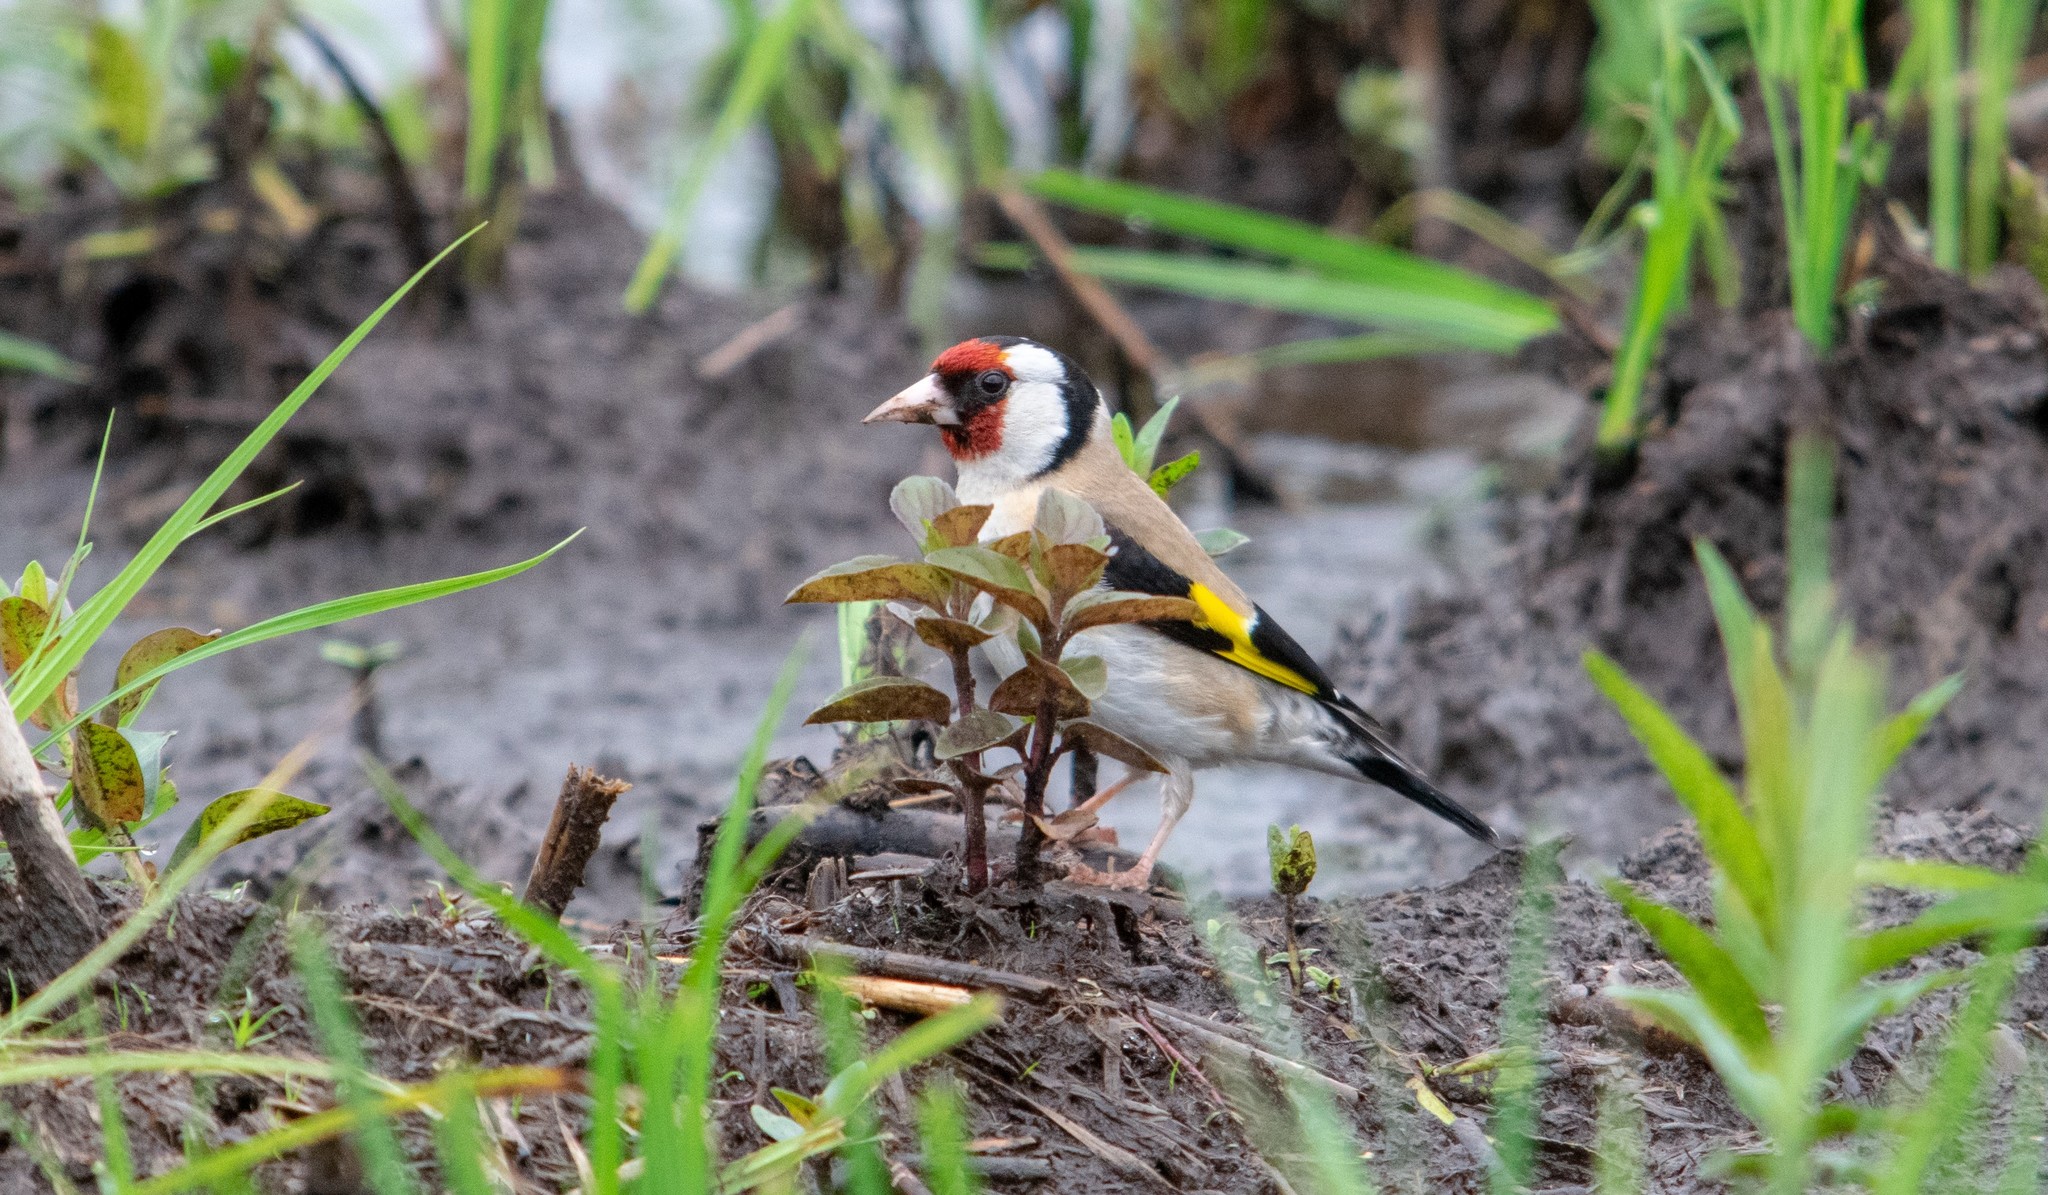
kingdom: Animalia
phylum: Chordata
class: Aves
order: Passeriformes
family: Fringillidae
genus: Carduelis
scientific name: Carduelis carduelis
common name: European goldfinch
